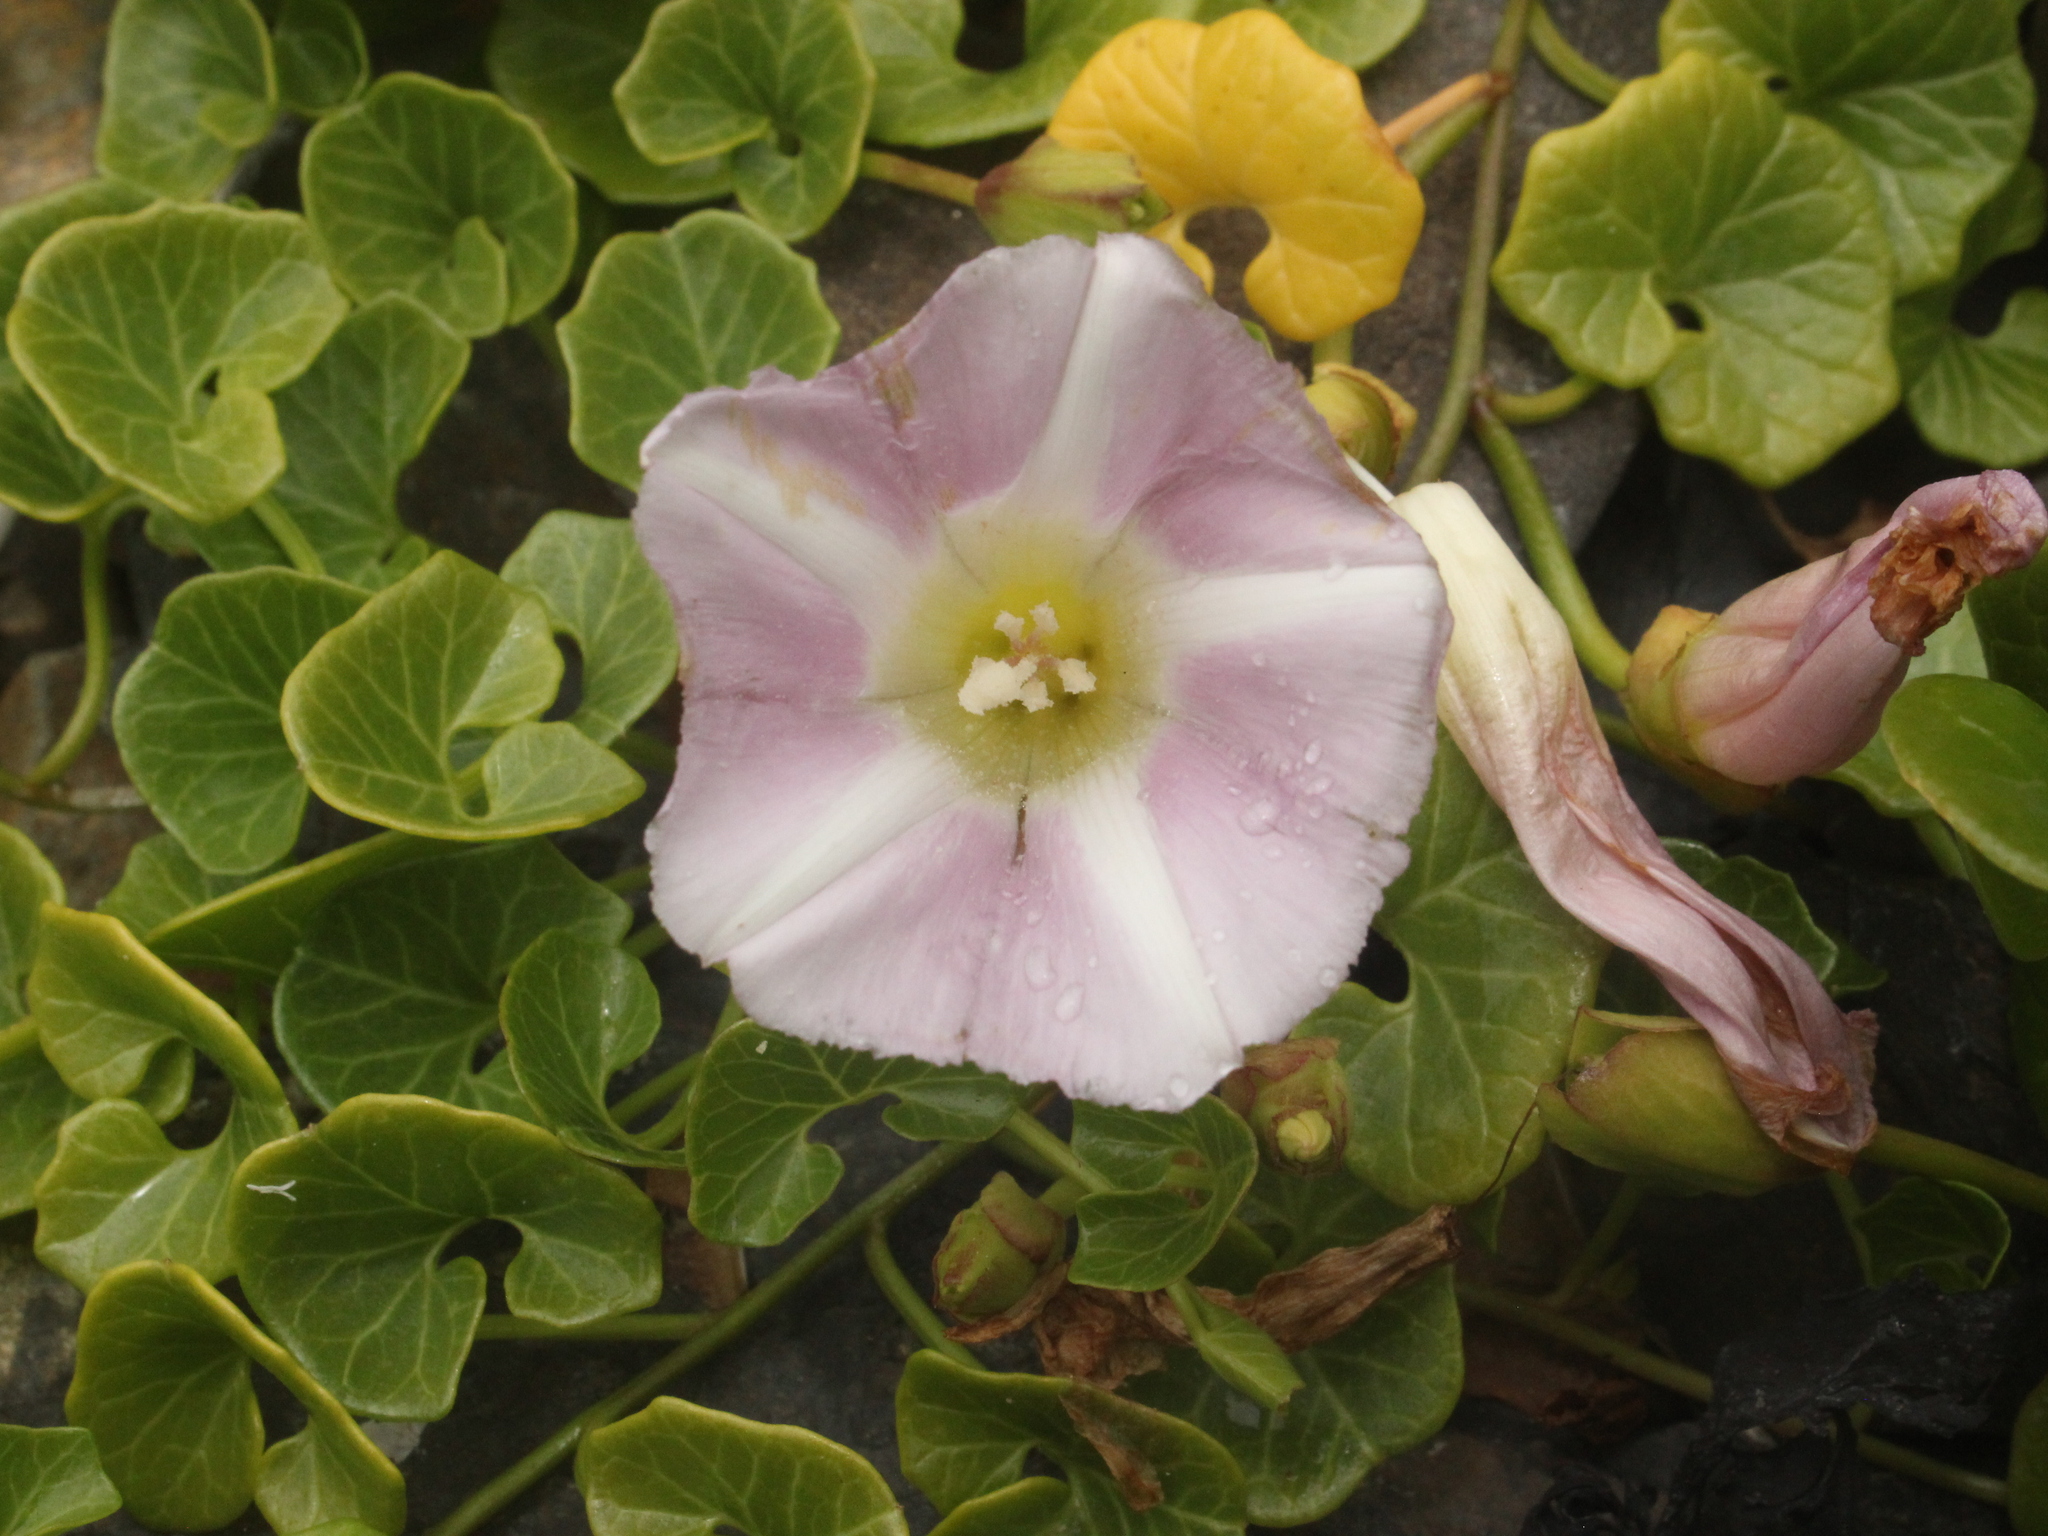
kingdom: Plantae
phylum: Tracheophyta
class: Magnoliopsida
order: Solanales
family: Convolvulaceae
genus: Calystegia
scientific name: Calystegia soldanella
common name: Sea bindweed
